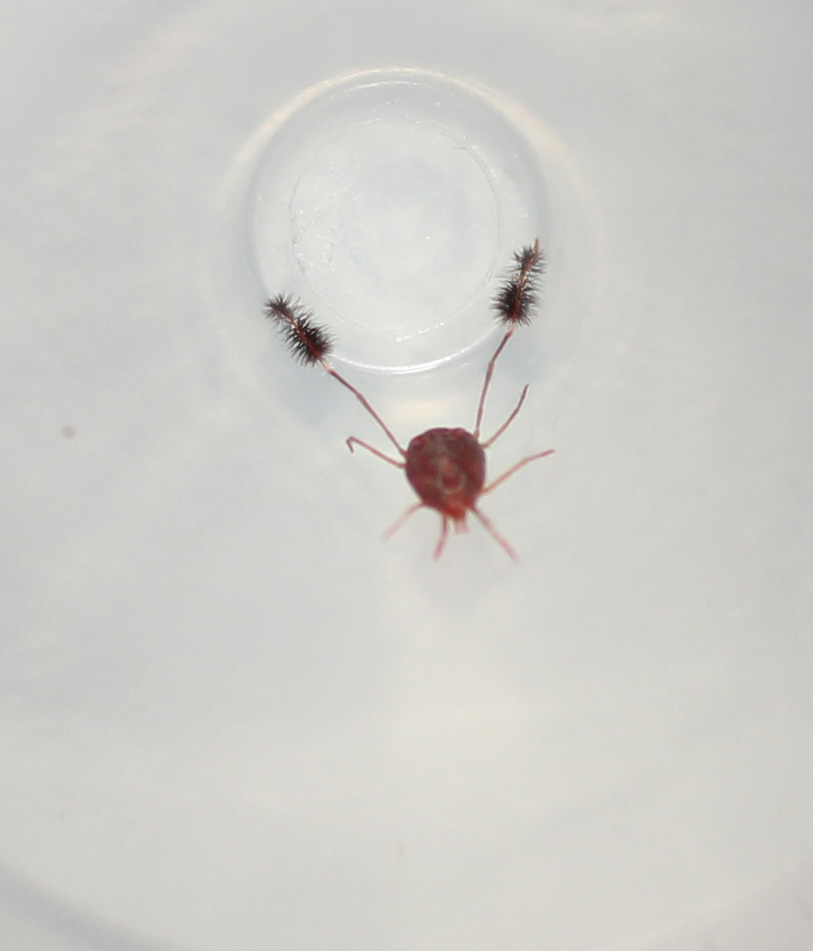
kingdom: Animalia
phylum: Arthropoda
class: Arachnida
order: Trombidiformes
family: Erythraeidae
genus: Eatoniana
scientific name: Eatoniana namaquensis
